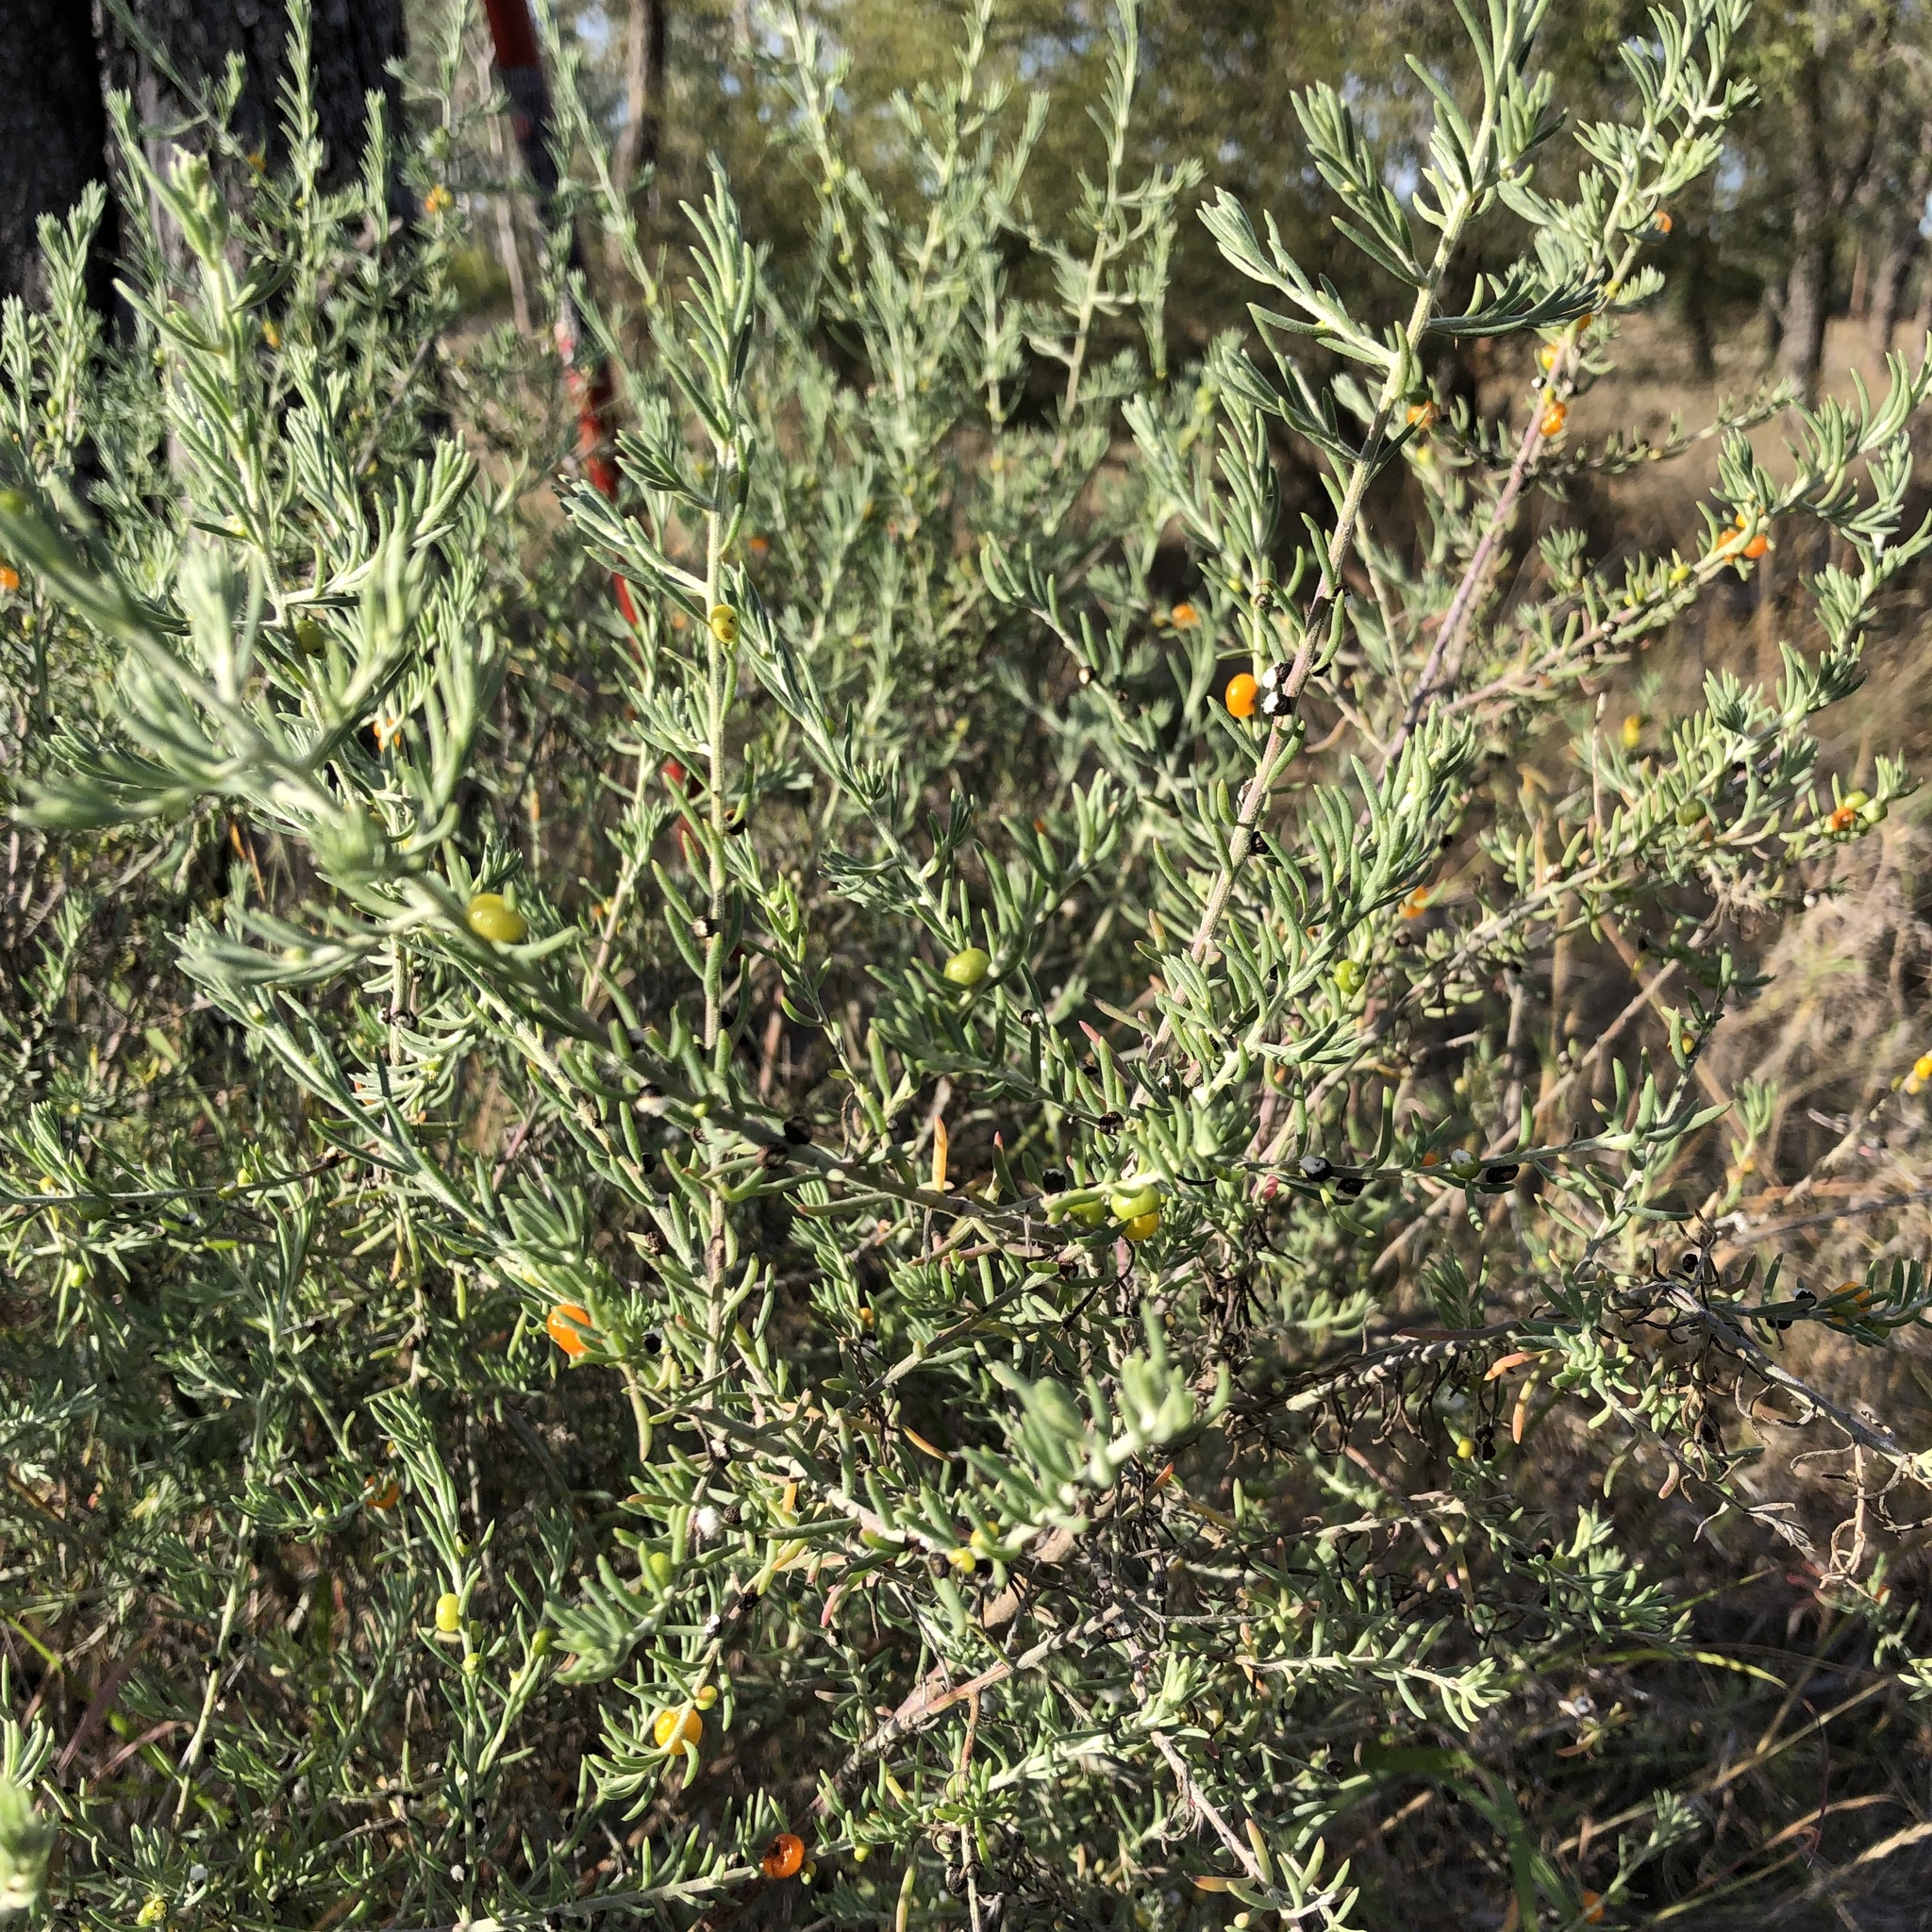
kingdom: Plantae
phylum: Tracheophyta
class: Magnoliopsida
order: Caryophyllales
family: Amaranthaceae
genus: Enchylaena
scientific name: Enchylaena tomentosa
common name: Ruby saltbush
